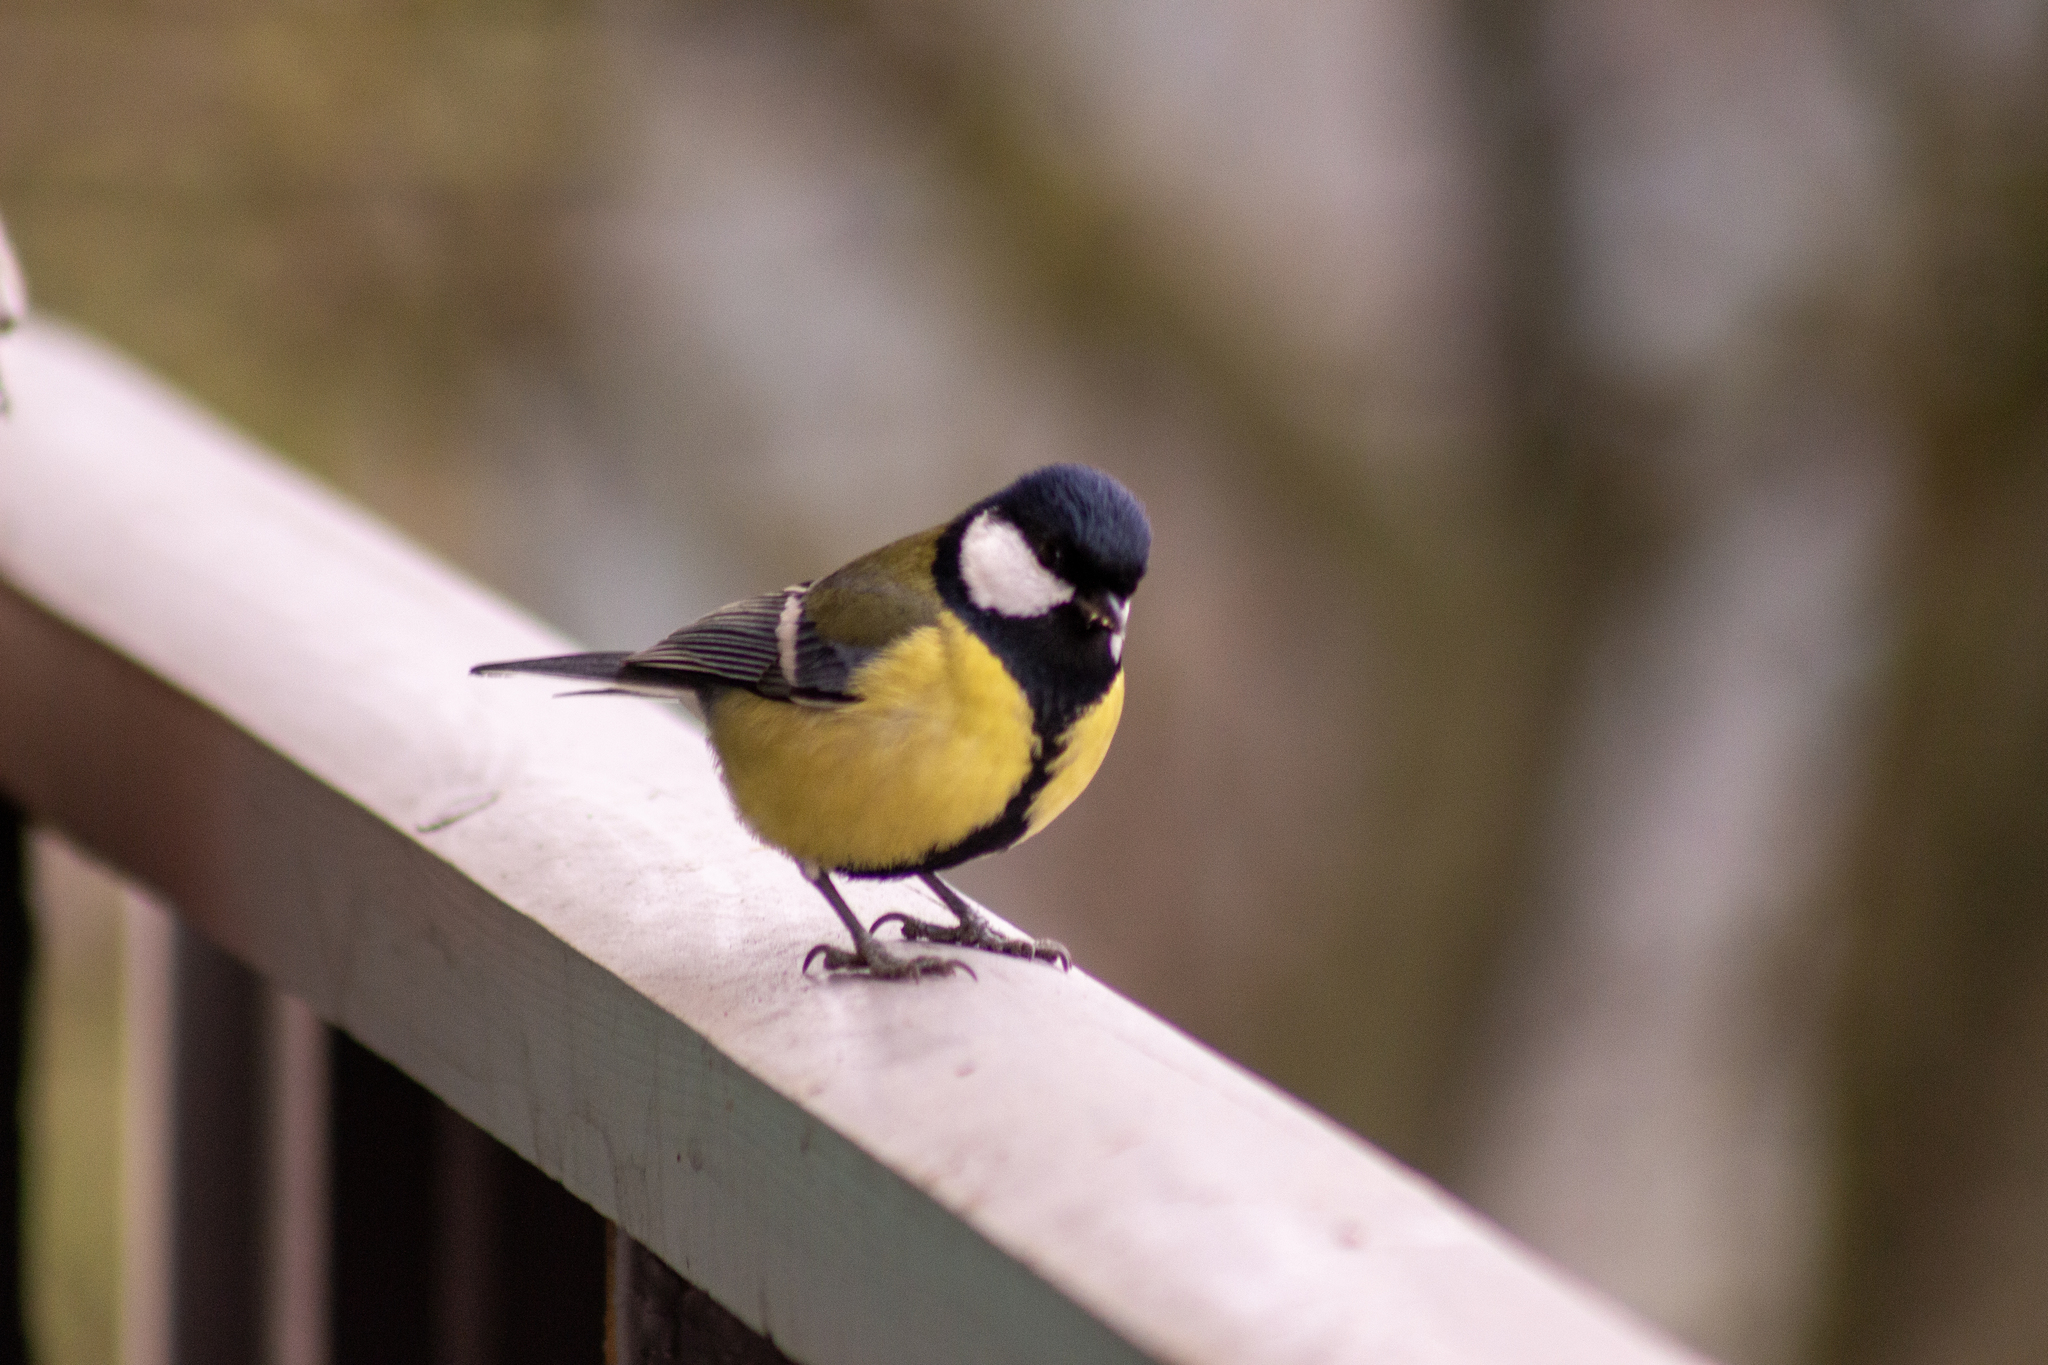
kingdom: Animalia
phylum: Chordata
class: Aves
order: Passeriformes
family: Paridae
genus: Parus
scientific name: Parus major
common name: Great tit
